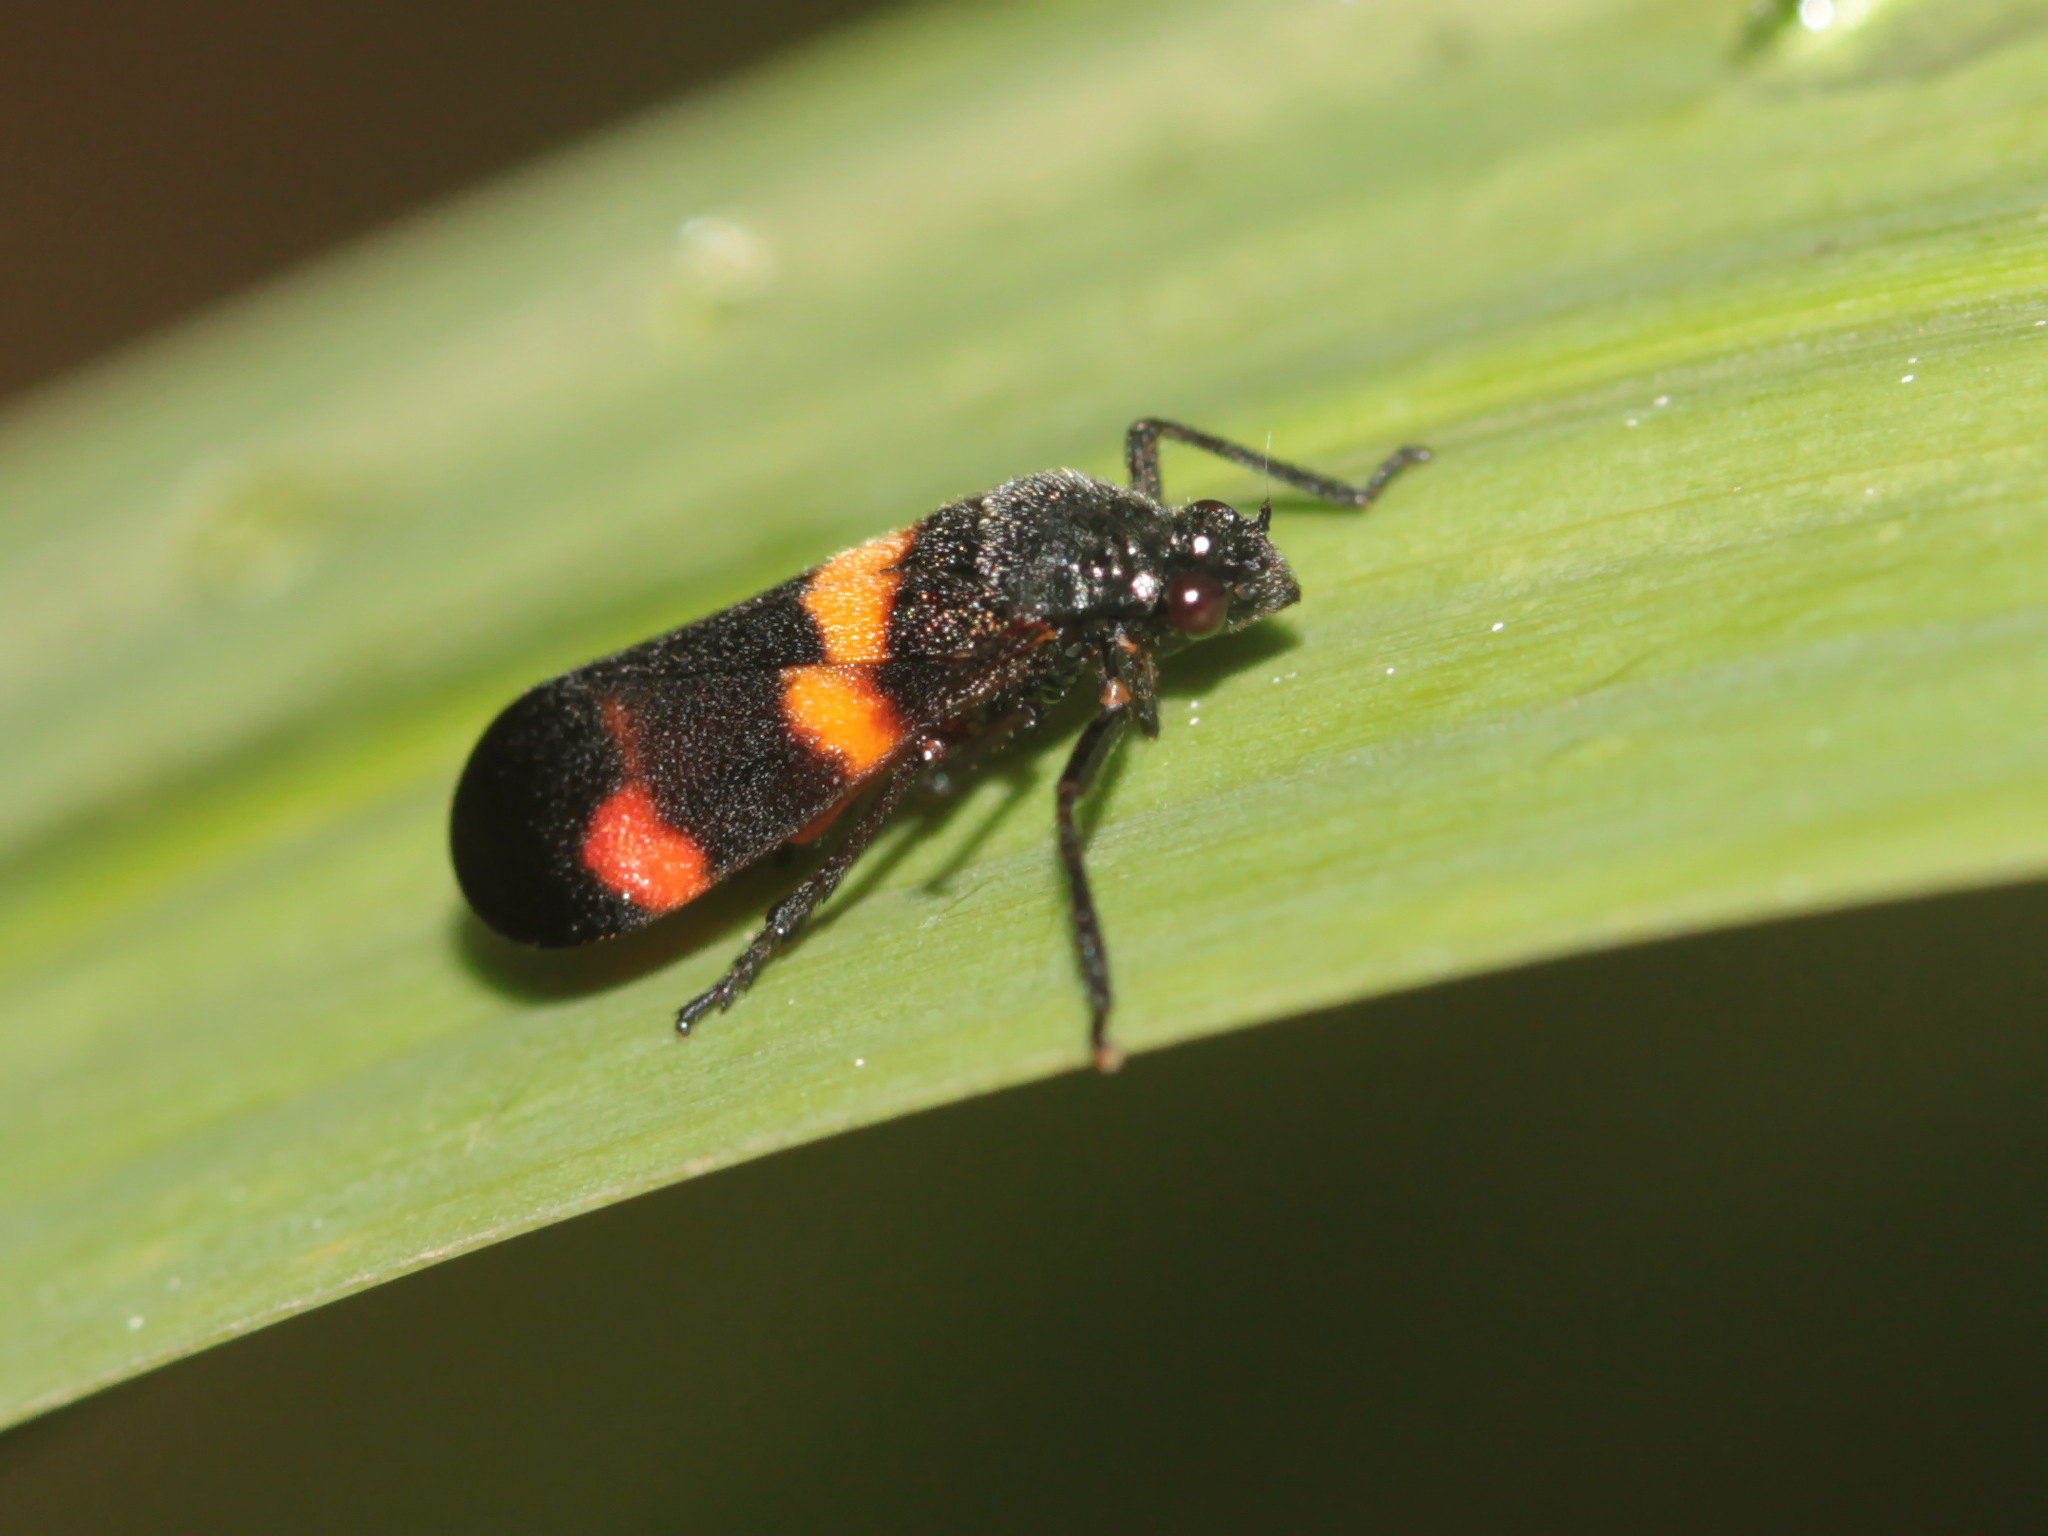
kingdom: Animalia
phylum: Arthropoda
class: Insecta
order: Hemiptera
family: Cercopidae
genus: Callitettix
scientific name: Callitettix carinifrons
